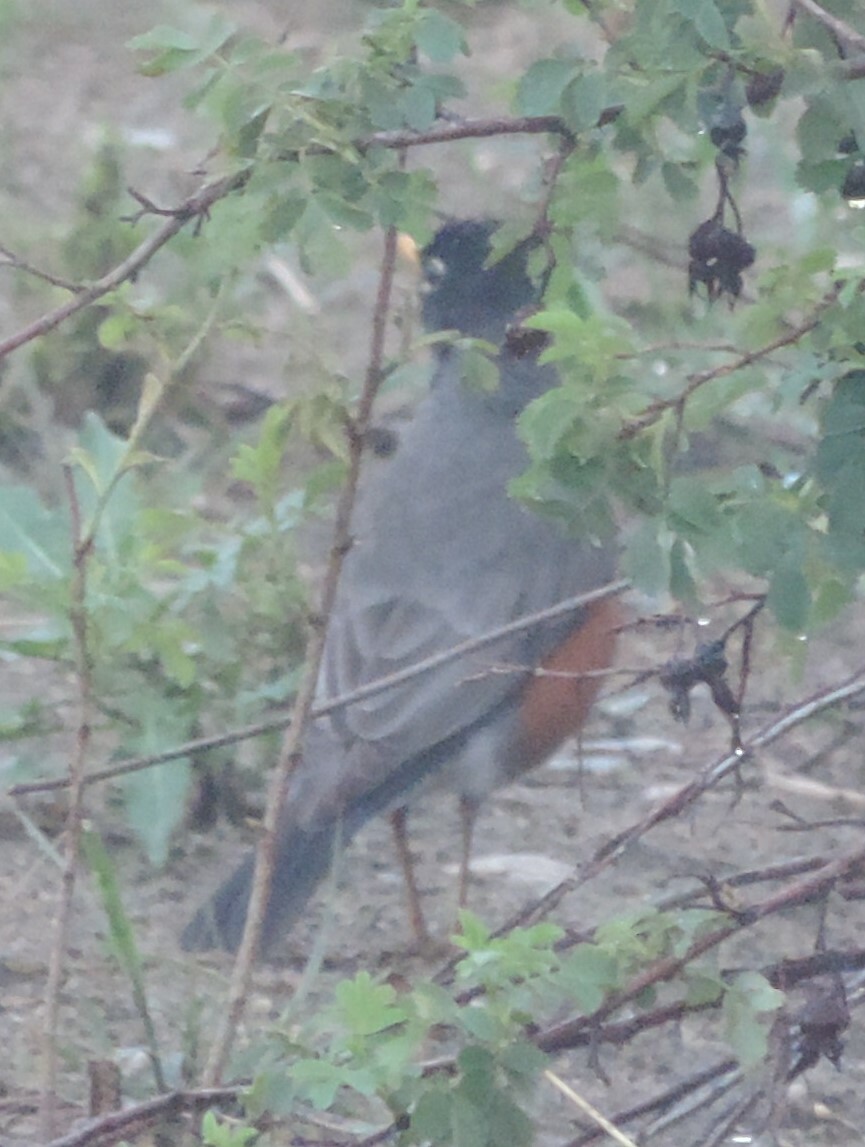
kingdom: Animalia
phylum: Chordata
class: Aves
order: Passeriformes
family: Turdidae
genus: Turdus
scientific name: Turdus migratorius
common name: American robin
